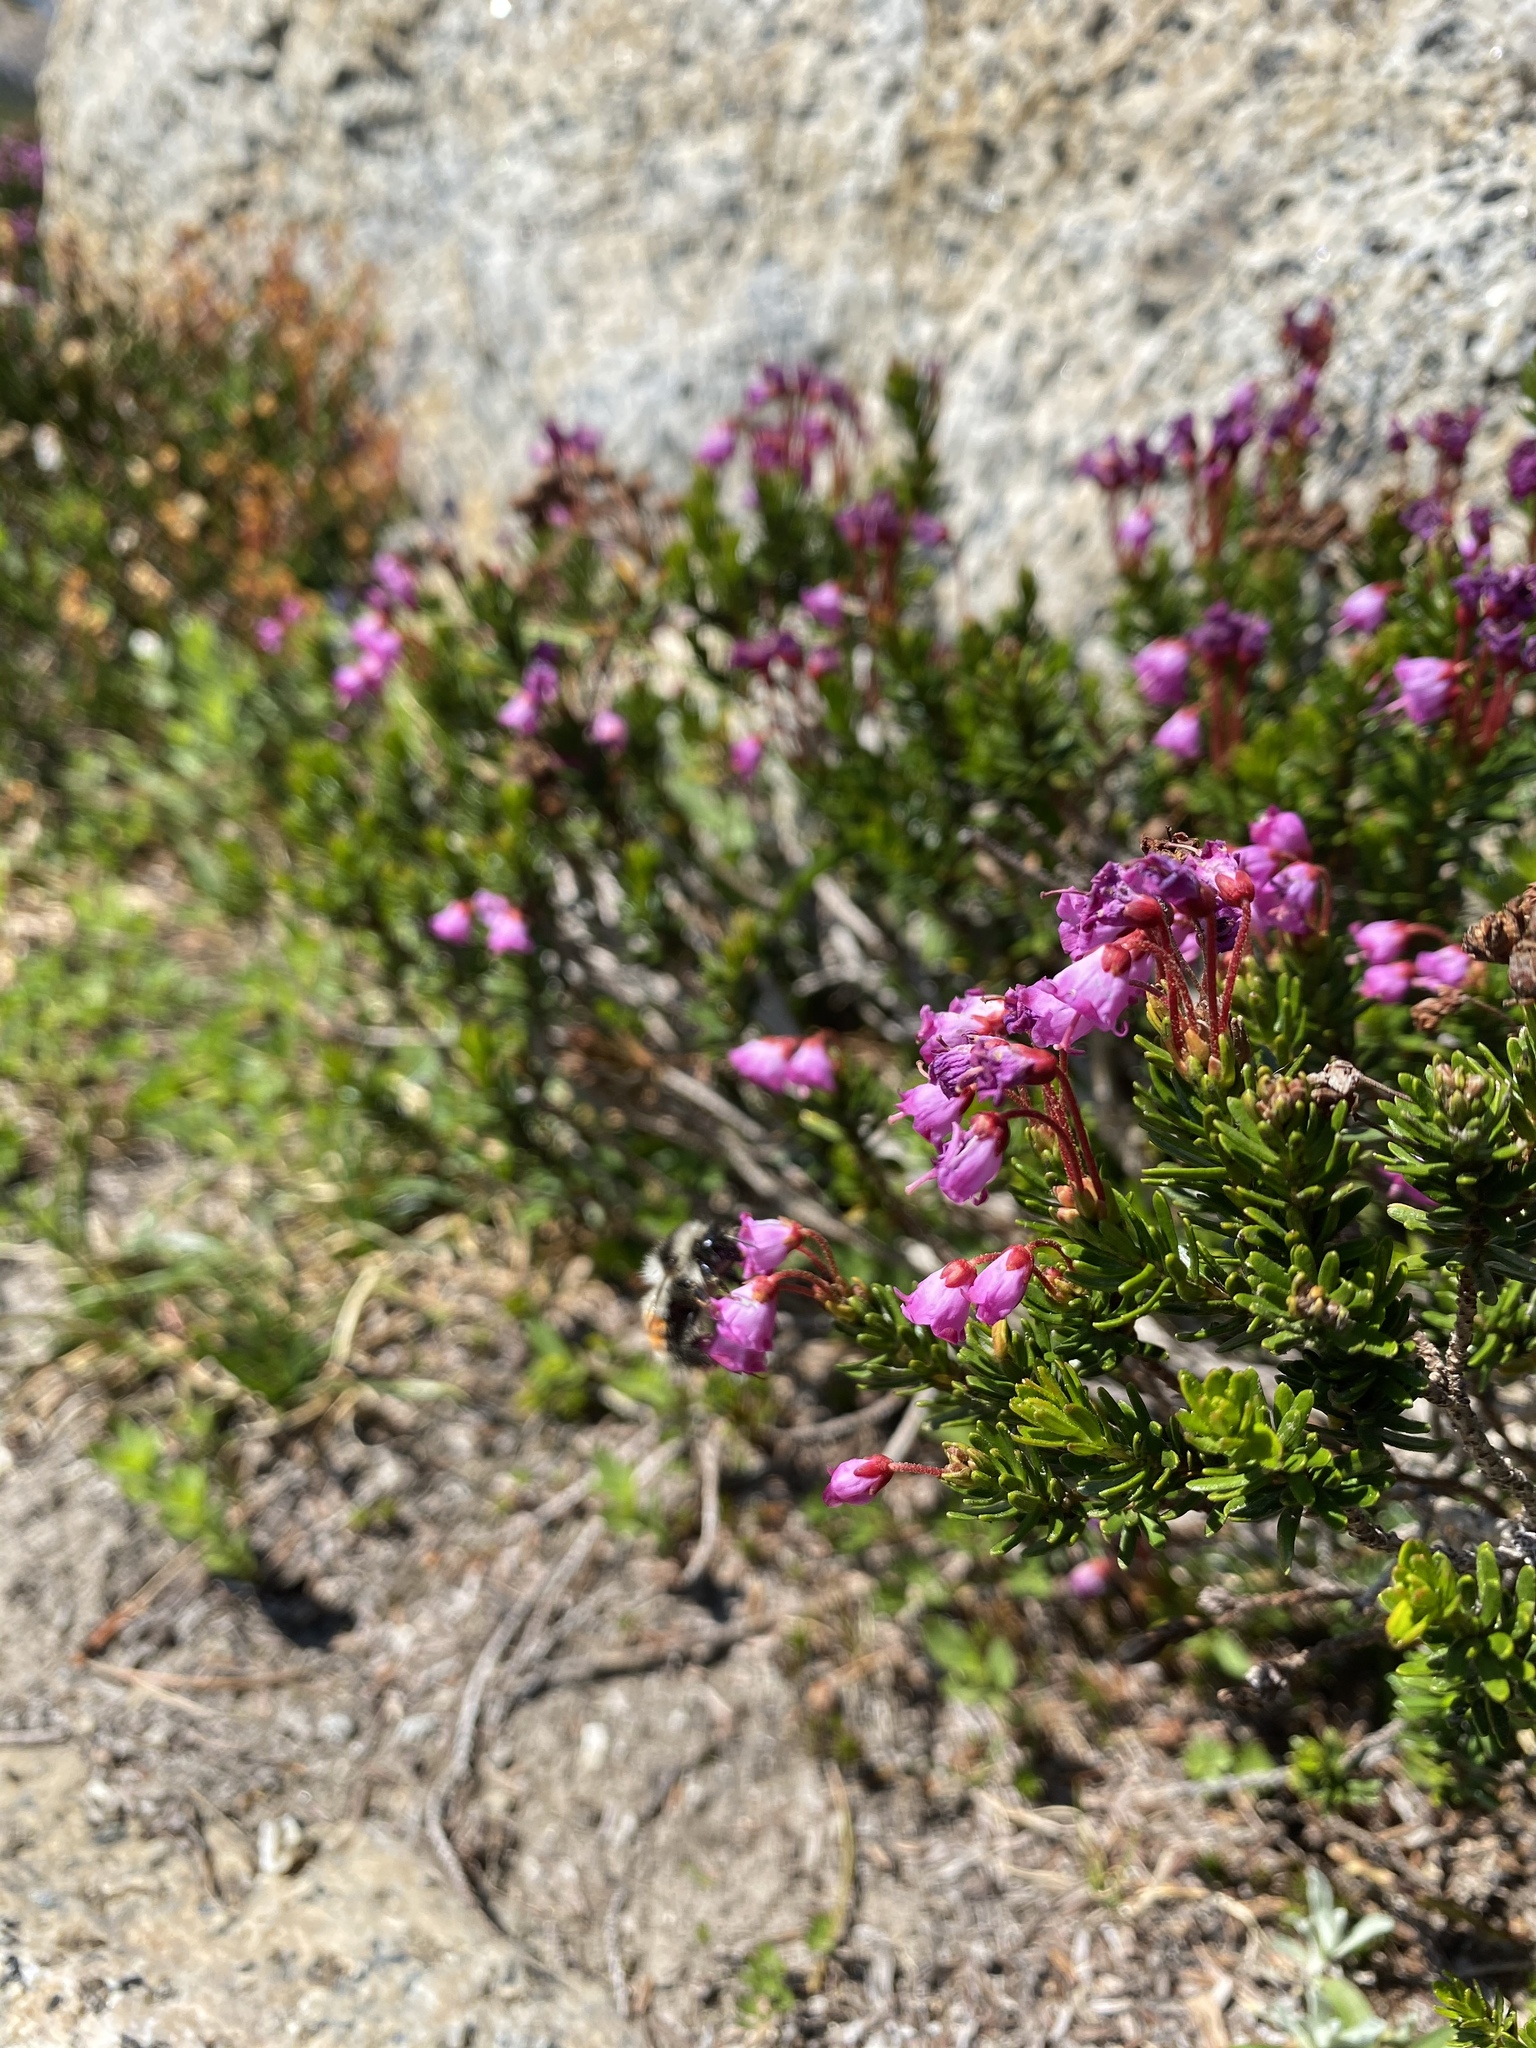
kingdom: Plantae
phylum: Tracheophyta
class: Magnoliopsida
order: Ericales
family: Ericaceae
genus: Phyllodoce
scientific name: Phyllodoce empetriformis
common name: Pink mountain heather
